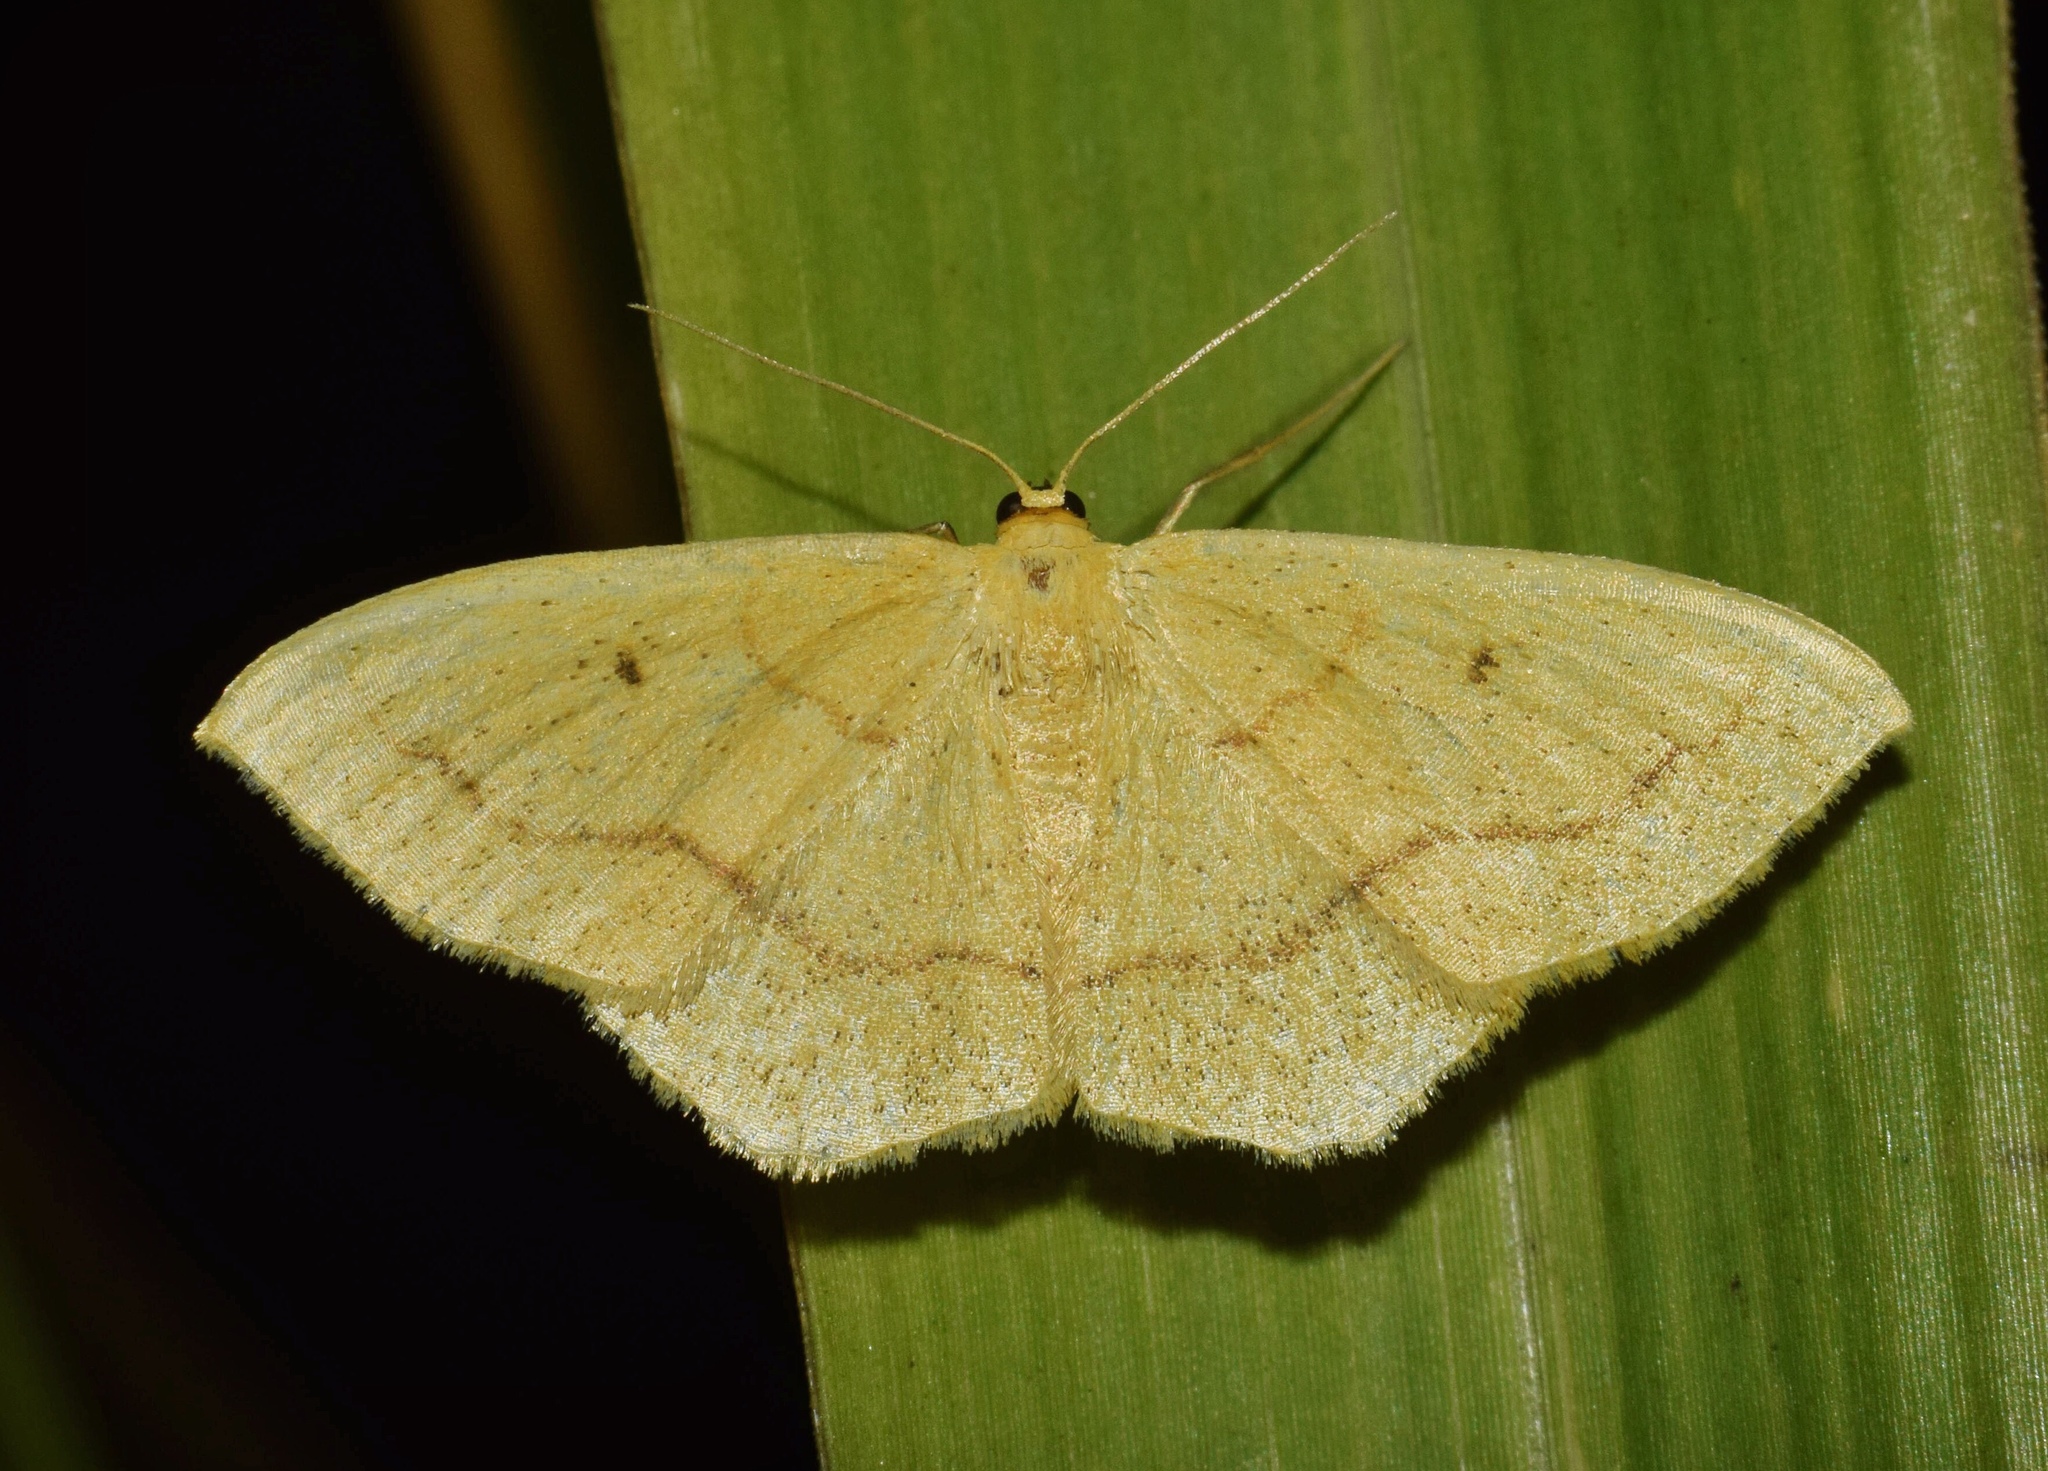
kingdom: Animalia
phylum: Arthropoda
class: Insecta
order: Lepidoptera
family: Geometridae
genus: Scopula
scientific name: Scopula straminea
